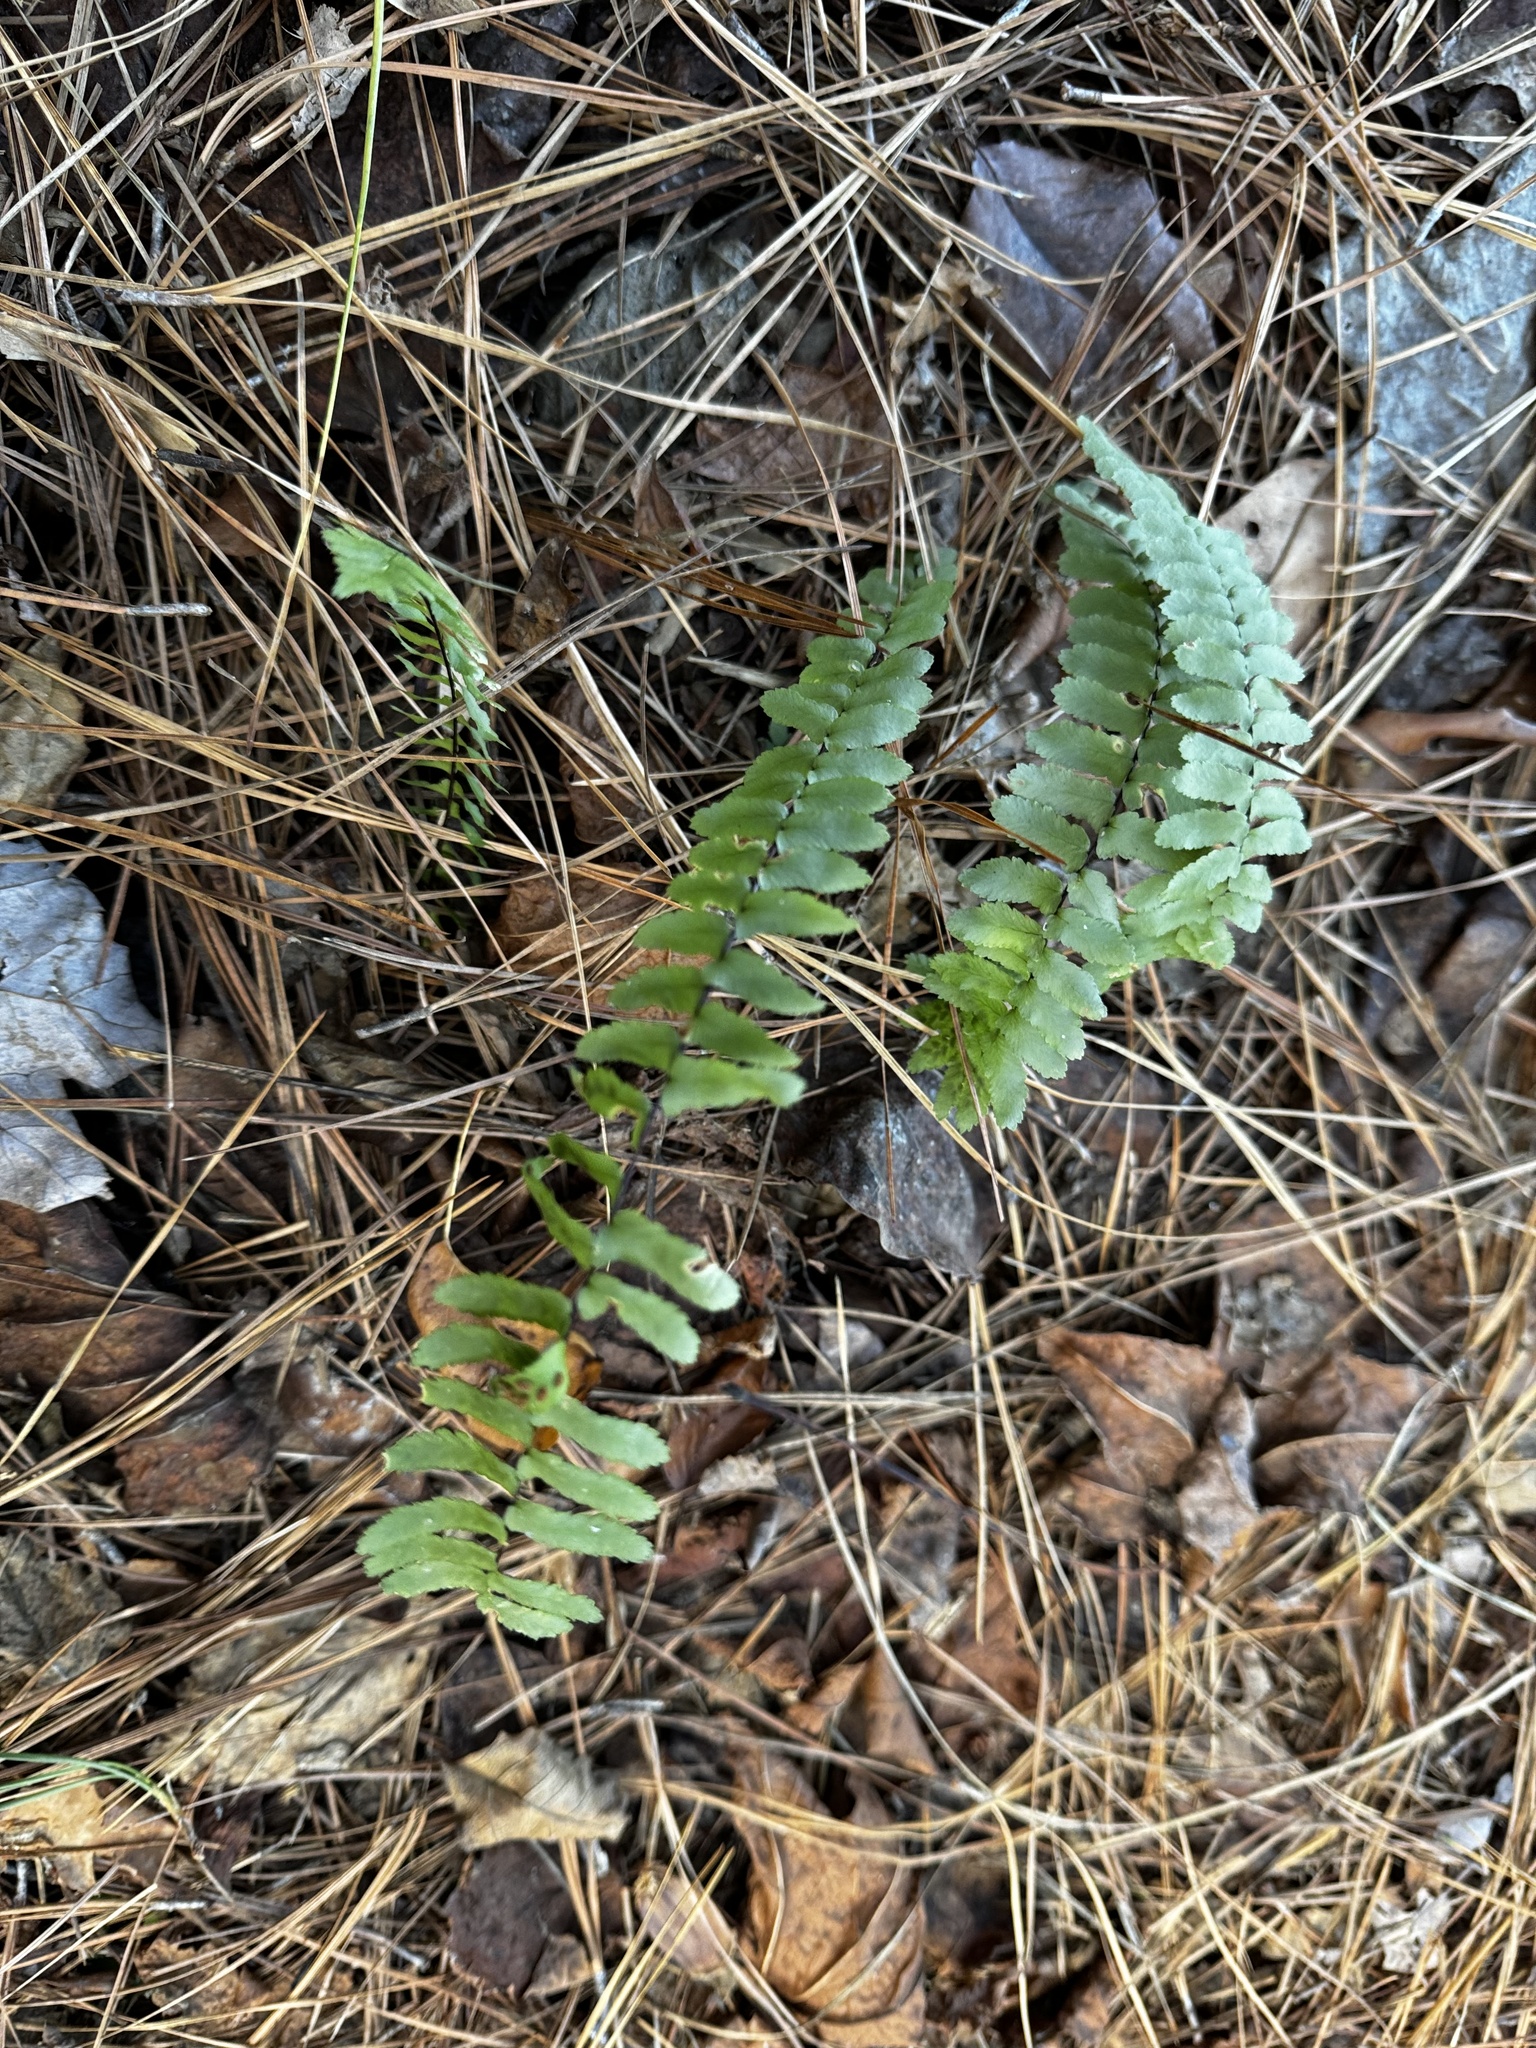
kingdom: Plantae
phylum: Tracheophyta
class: Polypodiopsida
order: Polypodiales
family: Aspleniaceae
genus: Asplenium
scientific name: Asplenium platyneuron
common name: Ebony spleenwort
